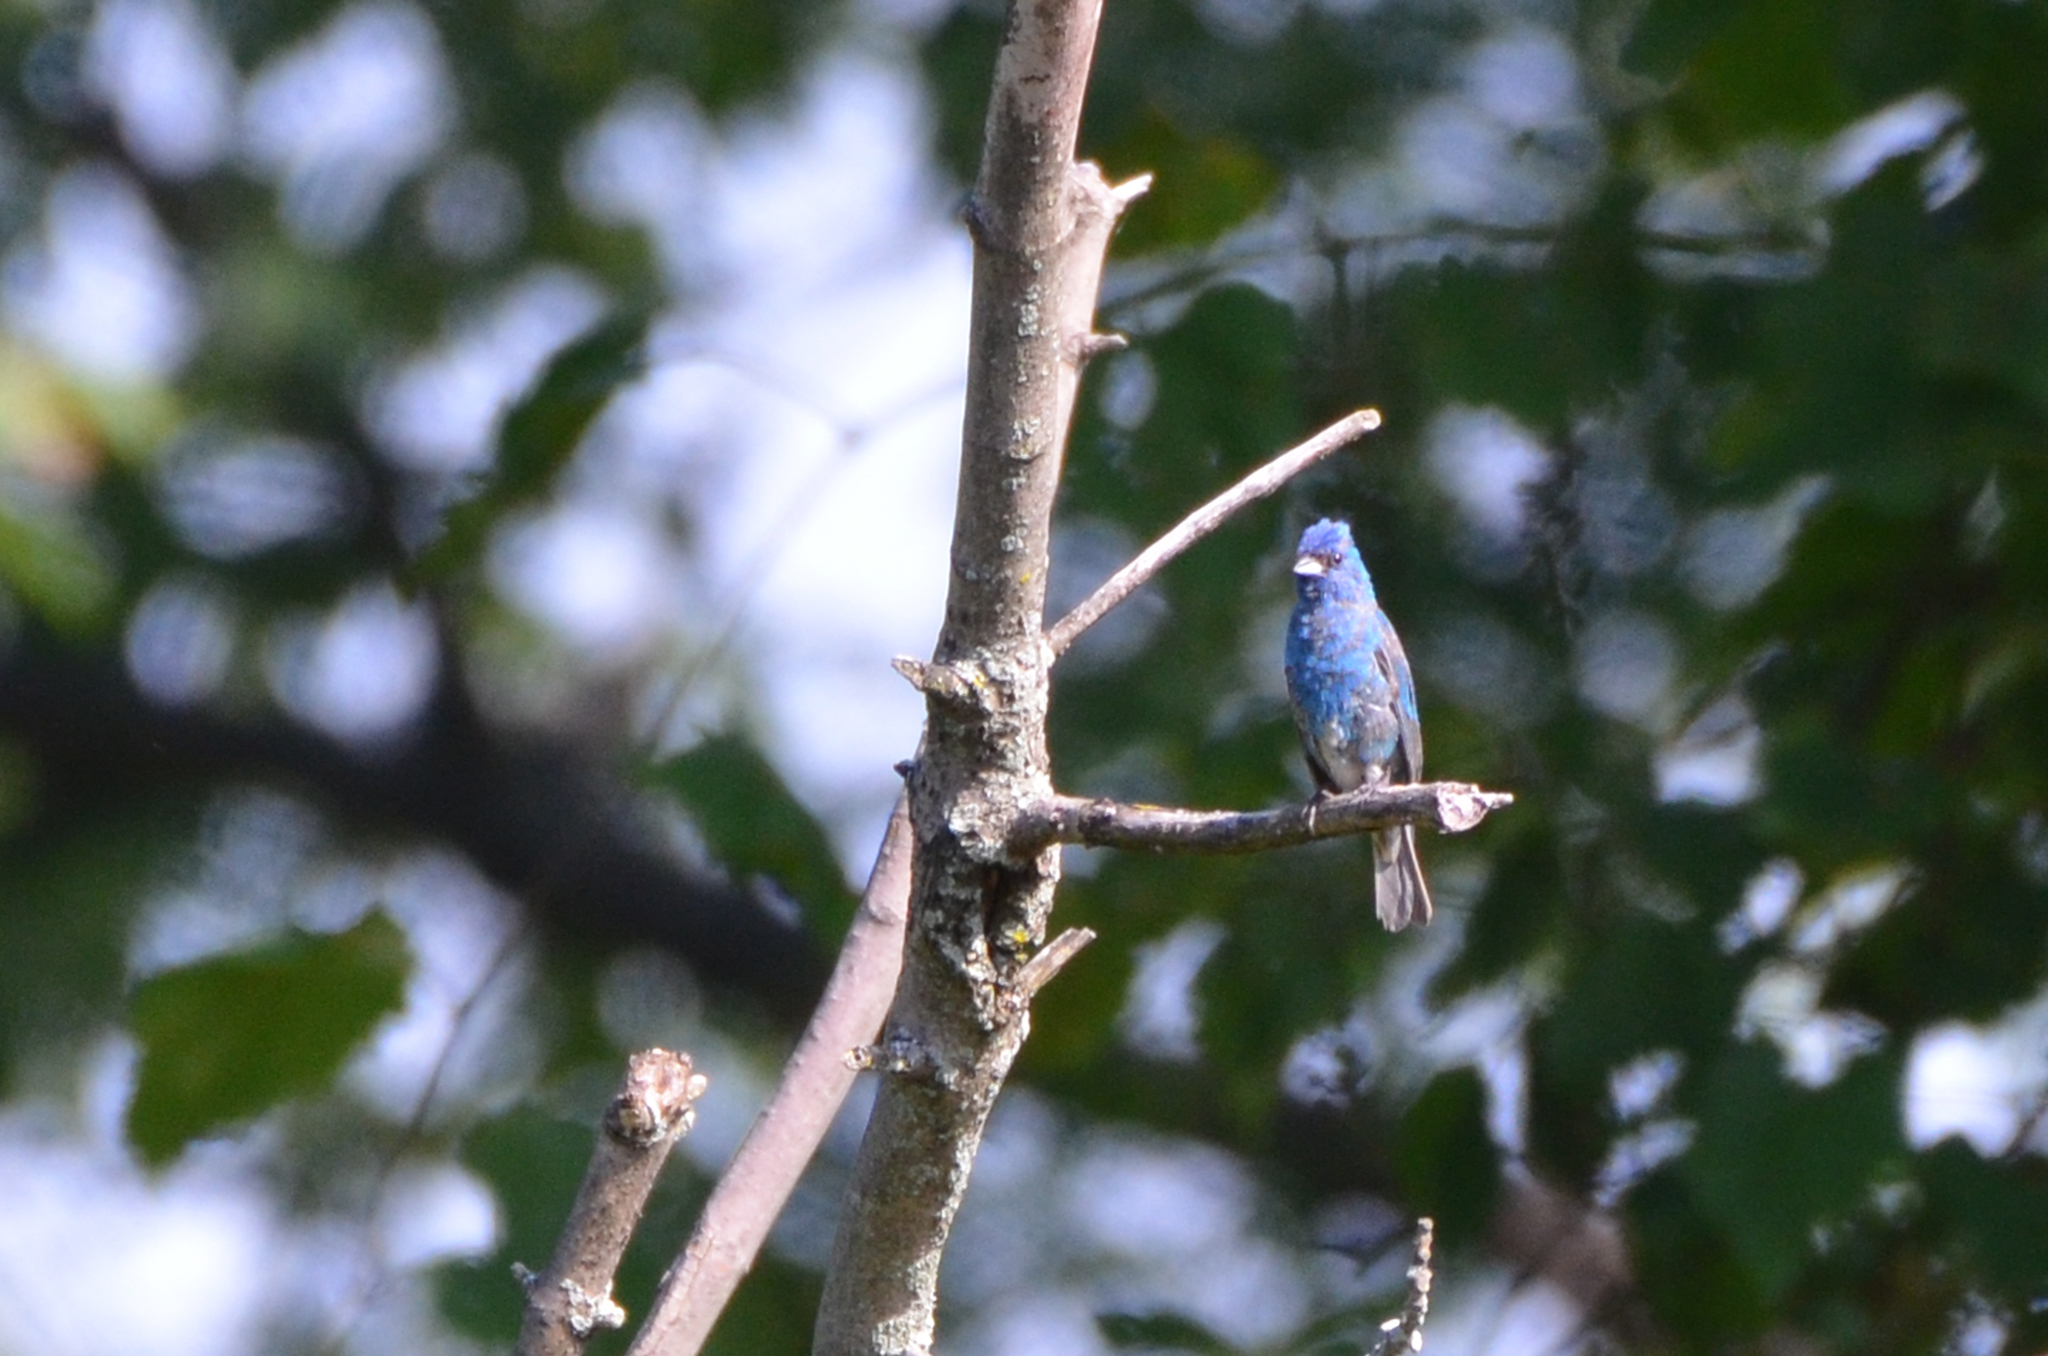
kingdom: Animalia
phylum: Chordata
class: Aves
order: Passeriformes
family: Cardinalidae
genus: Passerina
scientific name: Passerina cyanea
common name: Indigo bunting
